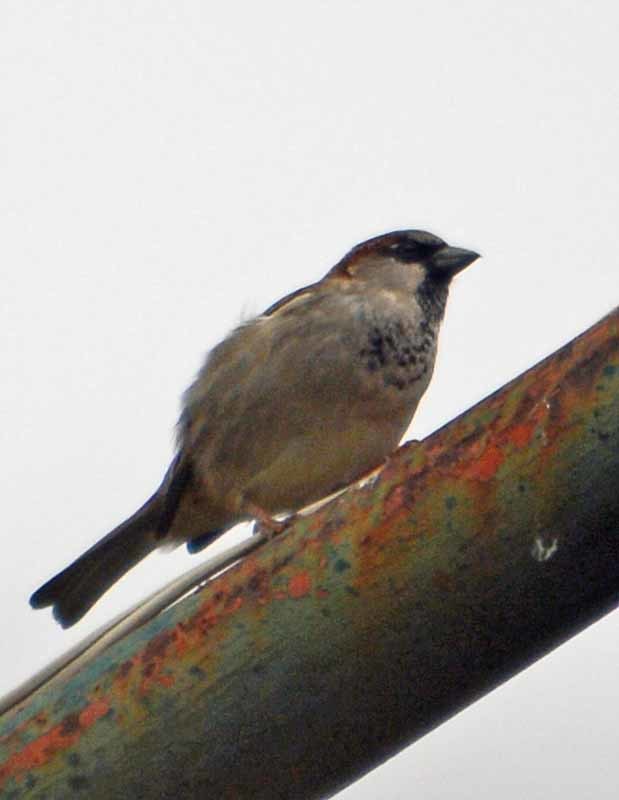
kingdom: Animalia
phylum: Chordata
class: Aves
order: Passeriformes
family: Passeridae
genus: Passer
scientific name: Passer domesticus
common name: House sparrow
